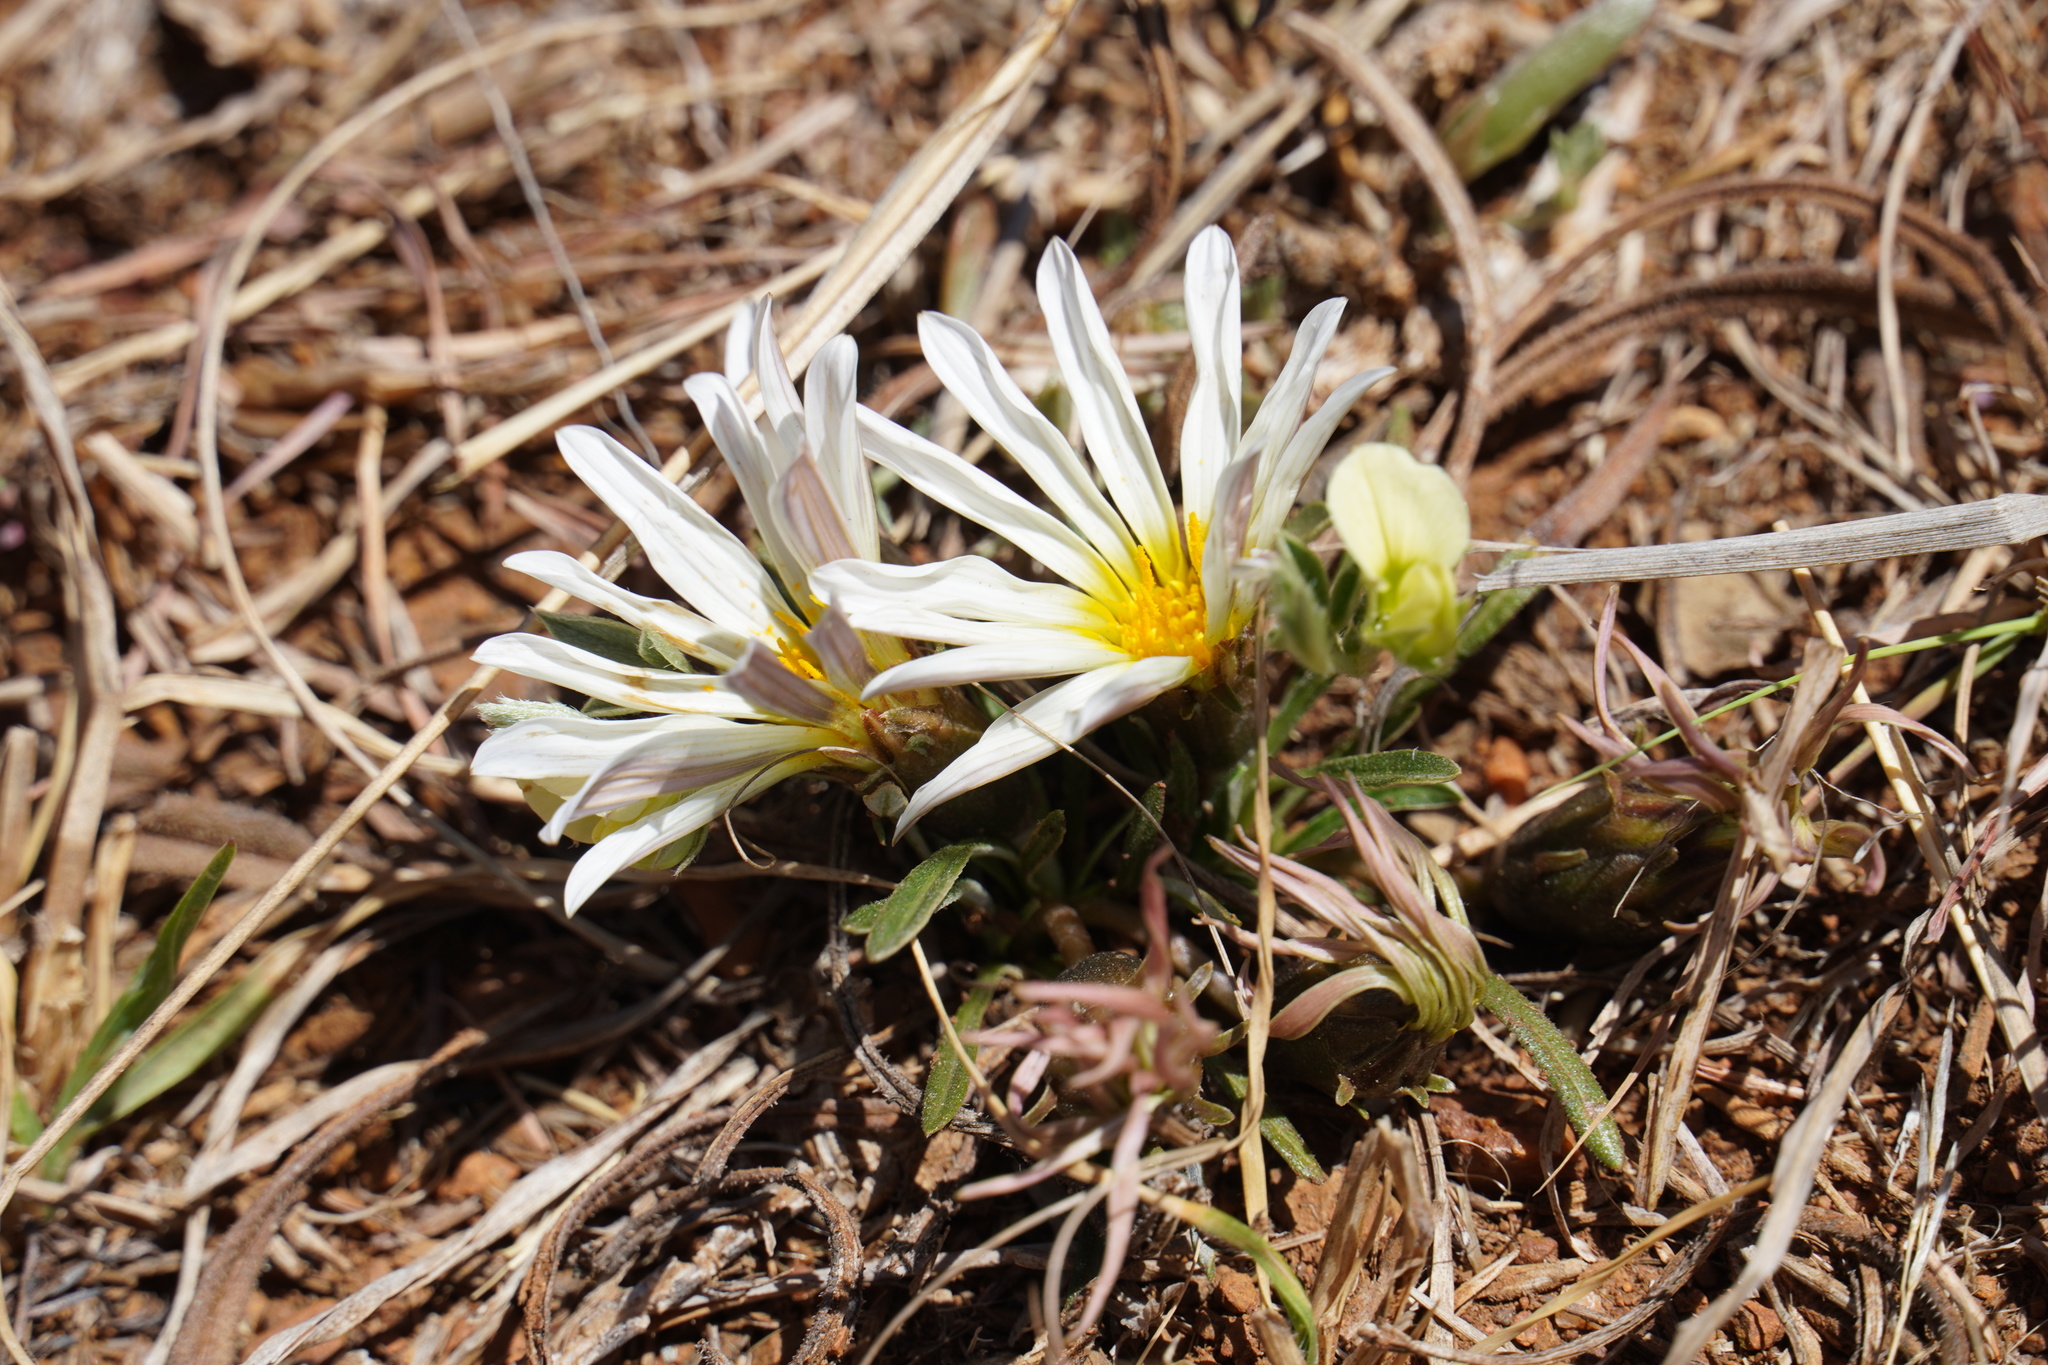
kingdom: Plantae
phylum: Tracheophyta
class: Magnoliopsida
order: Asterales
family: Asteraceae
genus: Gazania
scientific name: Gazania krebsiana
